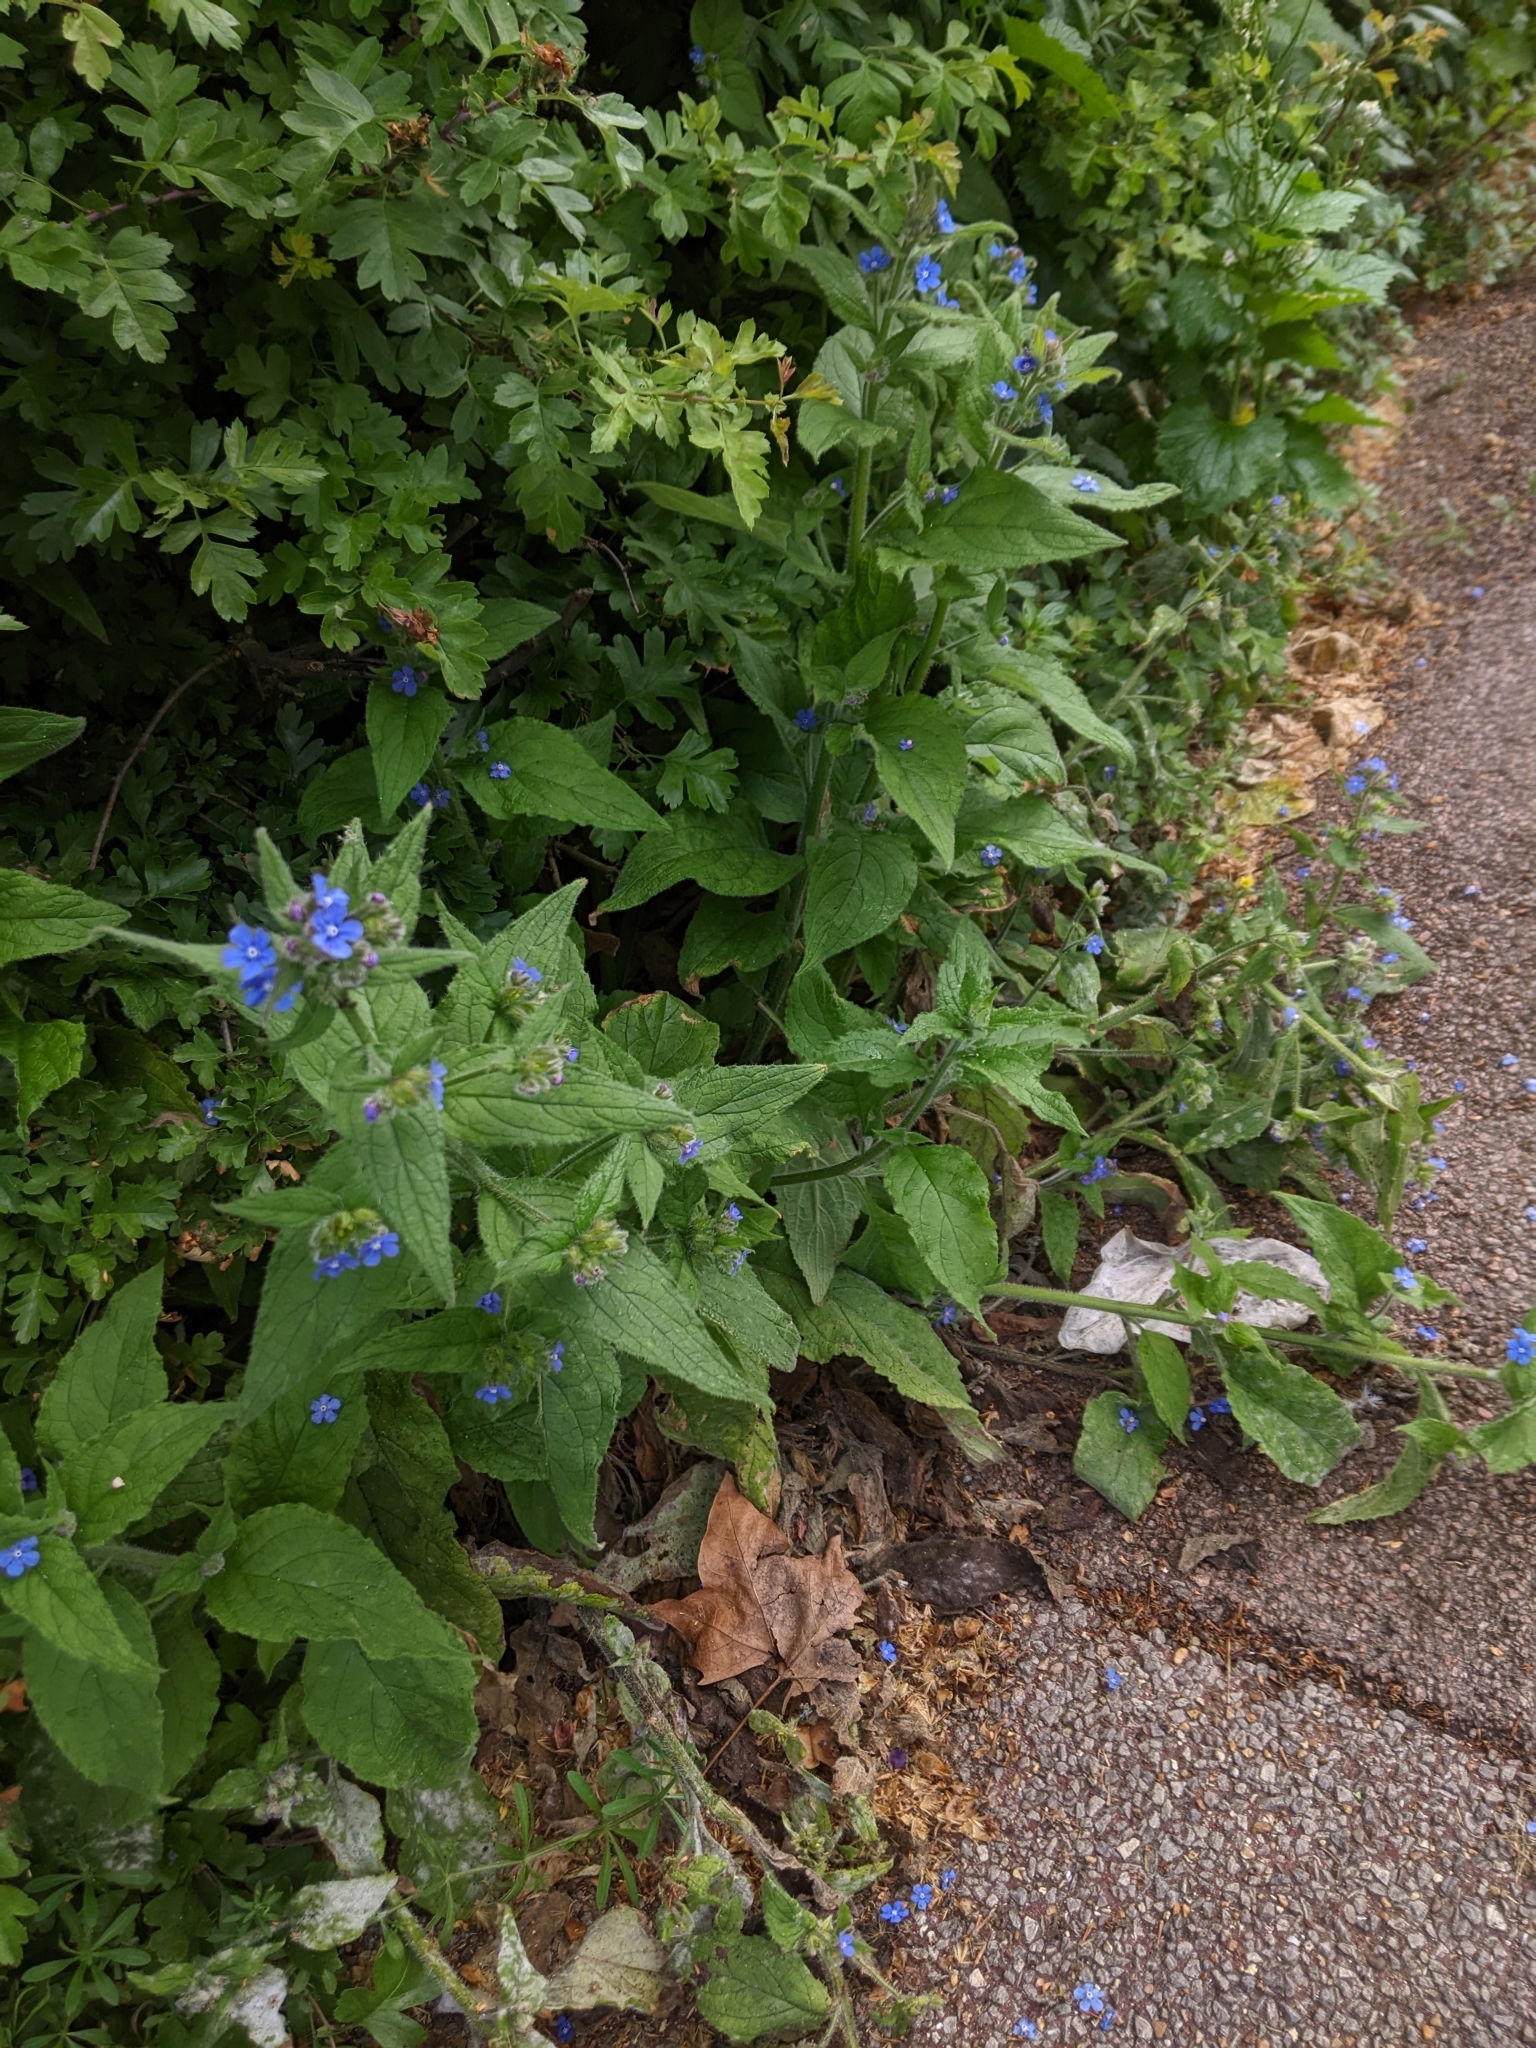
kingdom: Plantae
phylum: Tracheophyta
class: Magnoliopsida
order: Boraginales
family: Boraginaceae
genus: Pentaglottis
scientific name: Pentaglottis sempervirens
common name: Green alkanet
